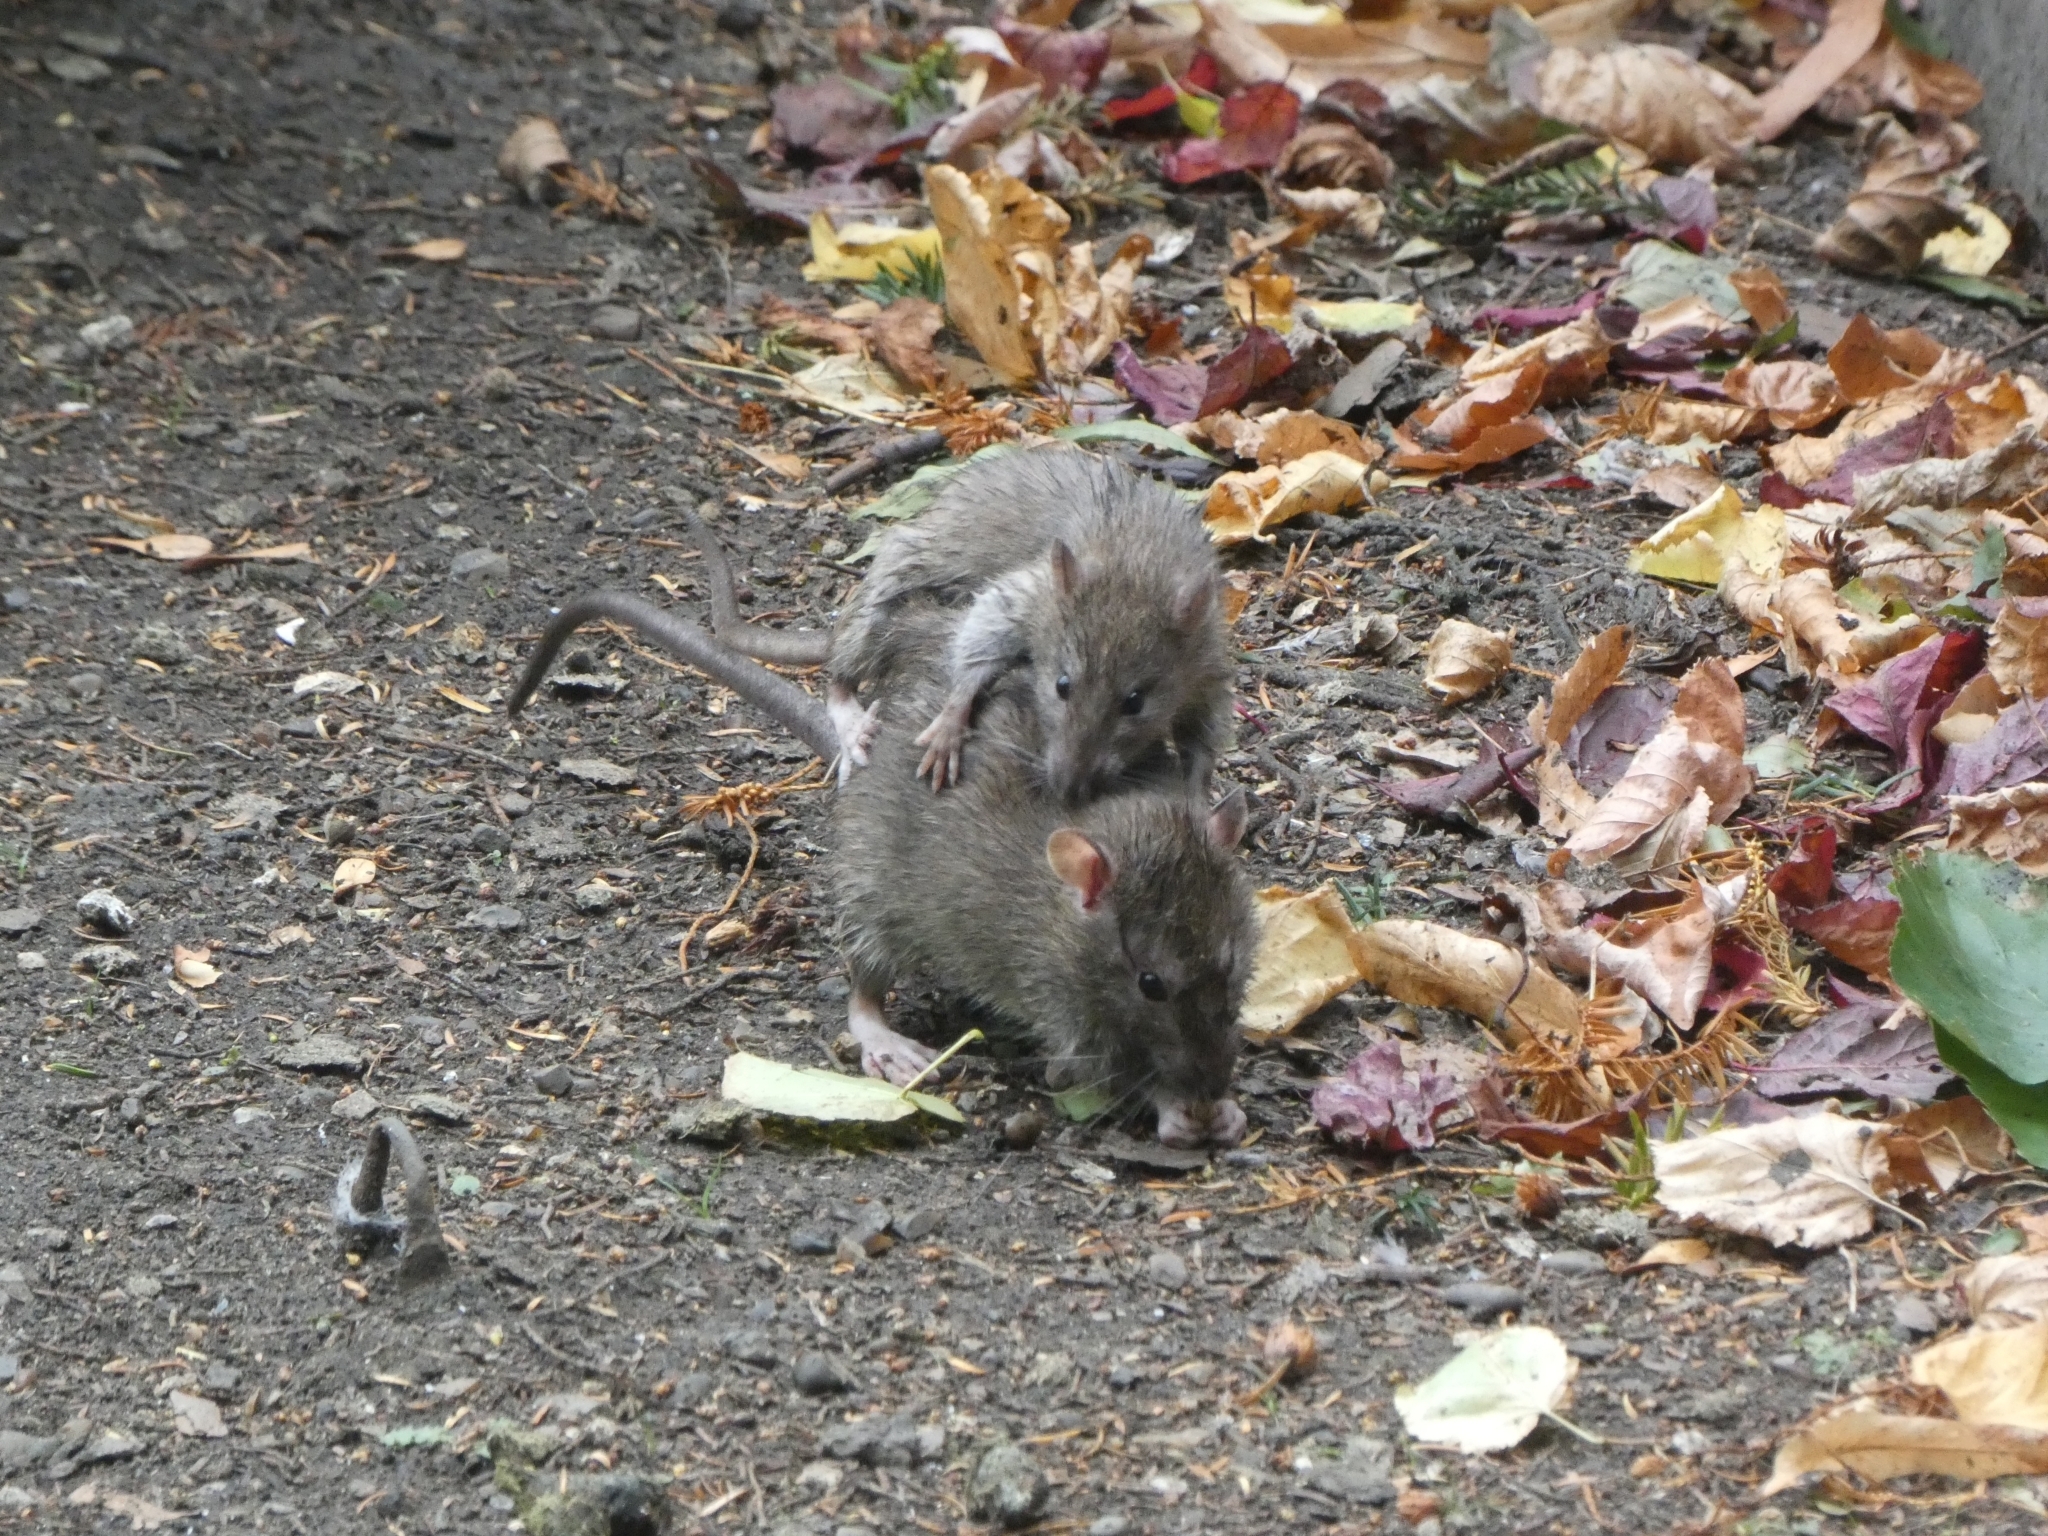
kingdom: Animalia
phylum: Chordata
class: Mammalia
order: Rodentia
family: Muridae
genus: Rattus
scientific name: Rattus norvegicus
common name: Brown rat
